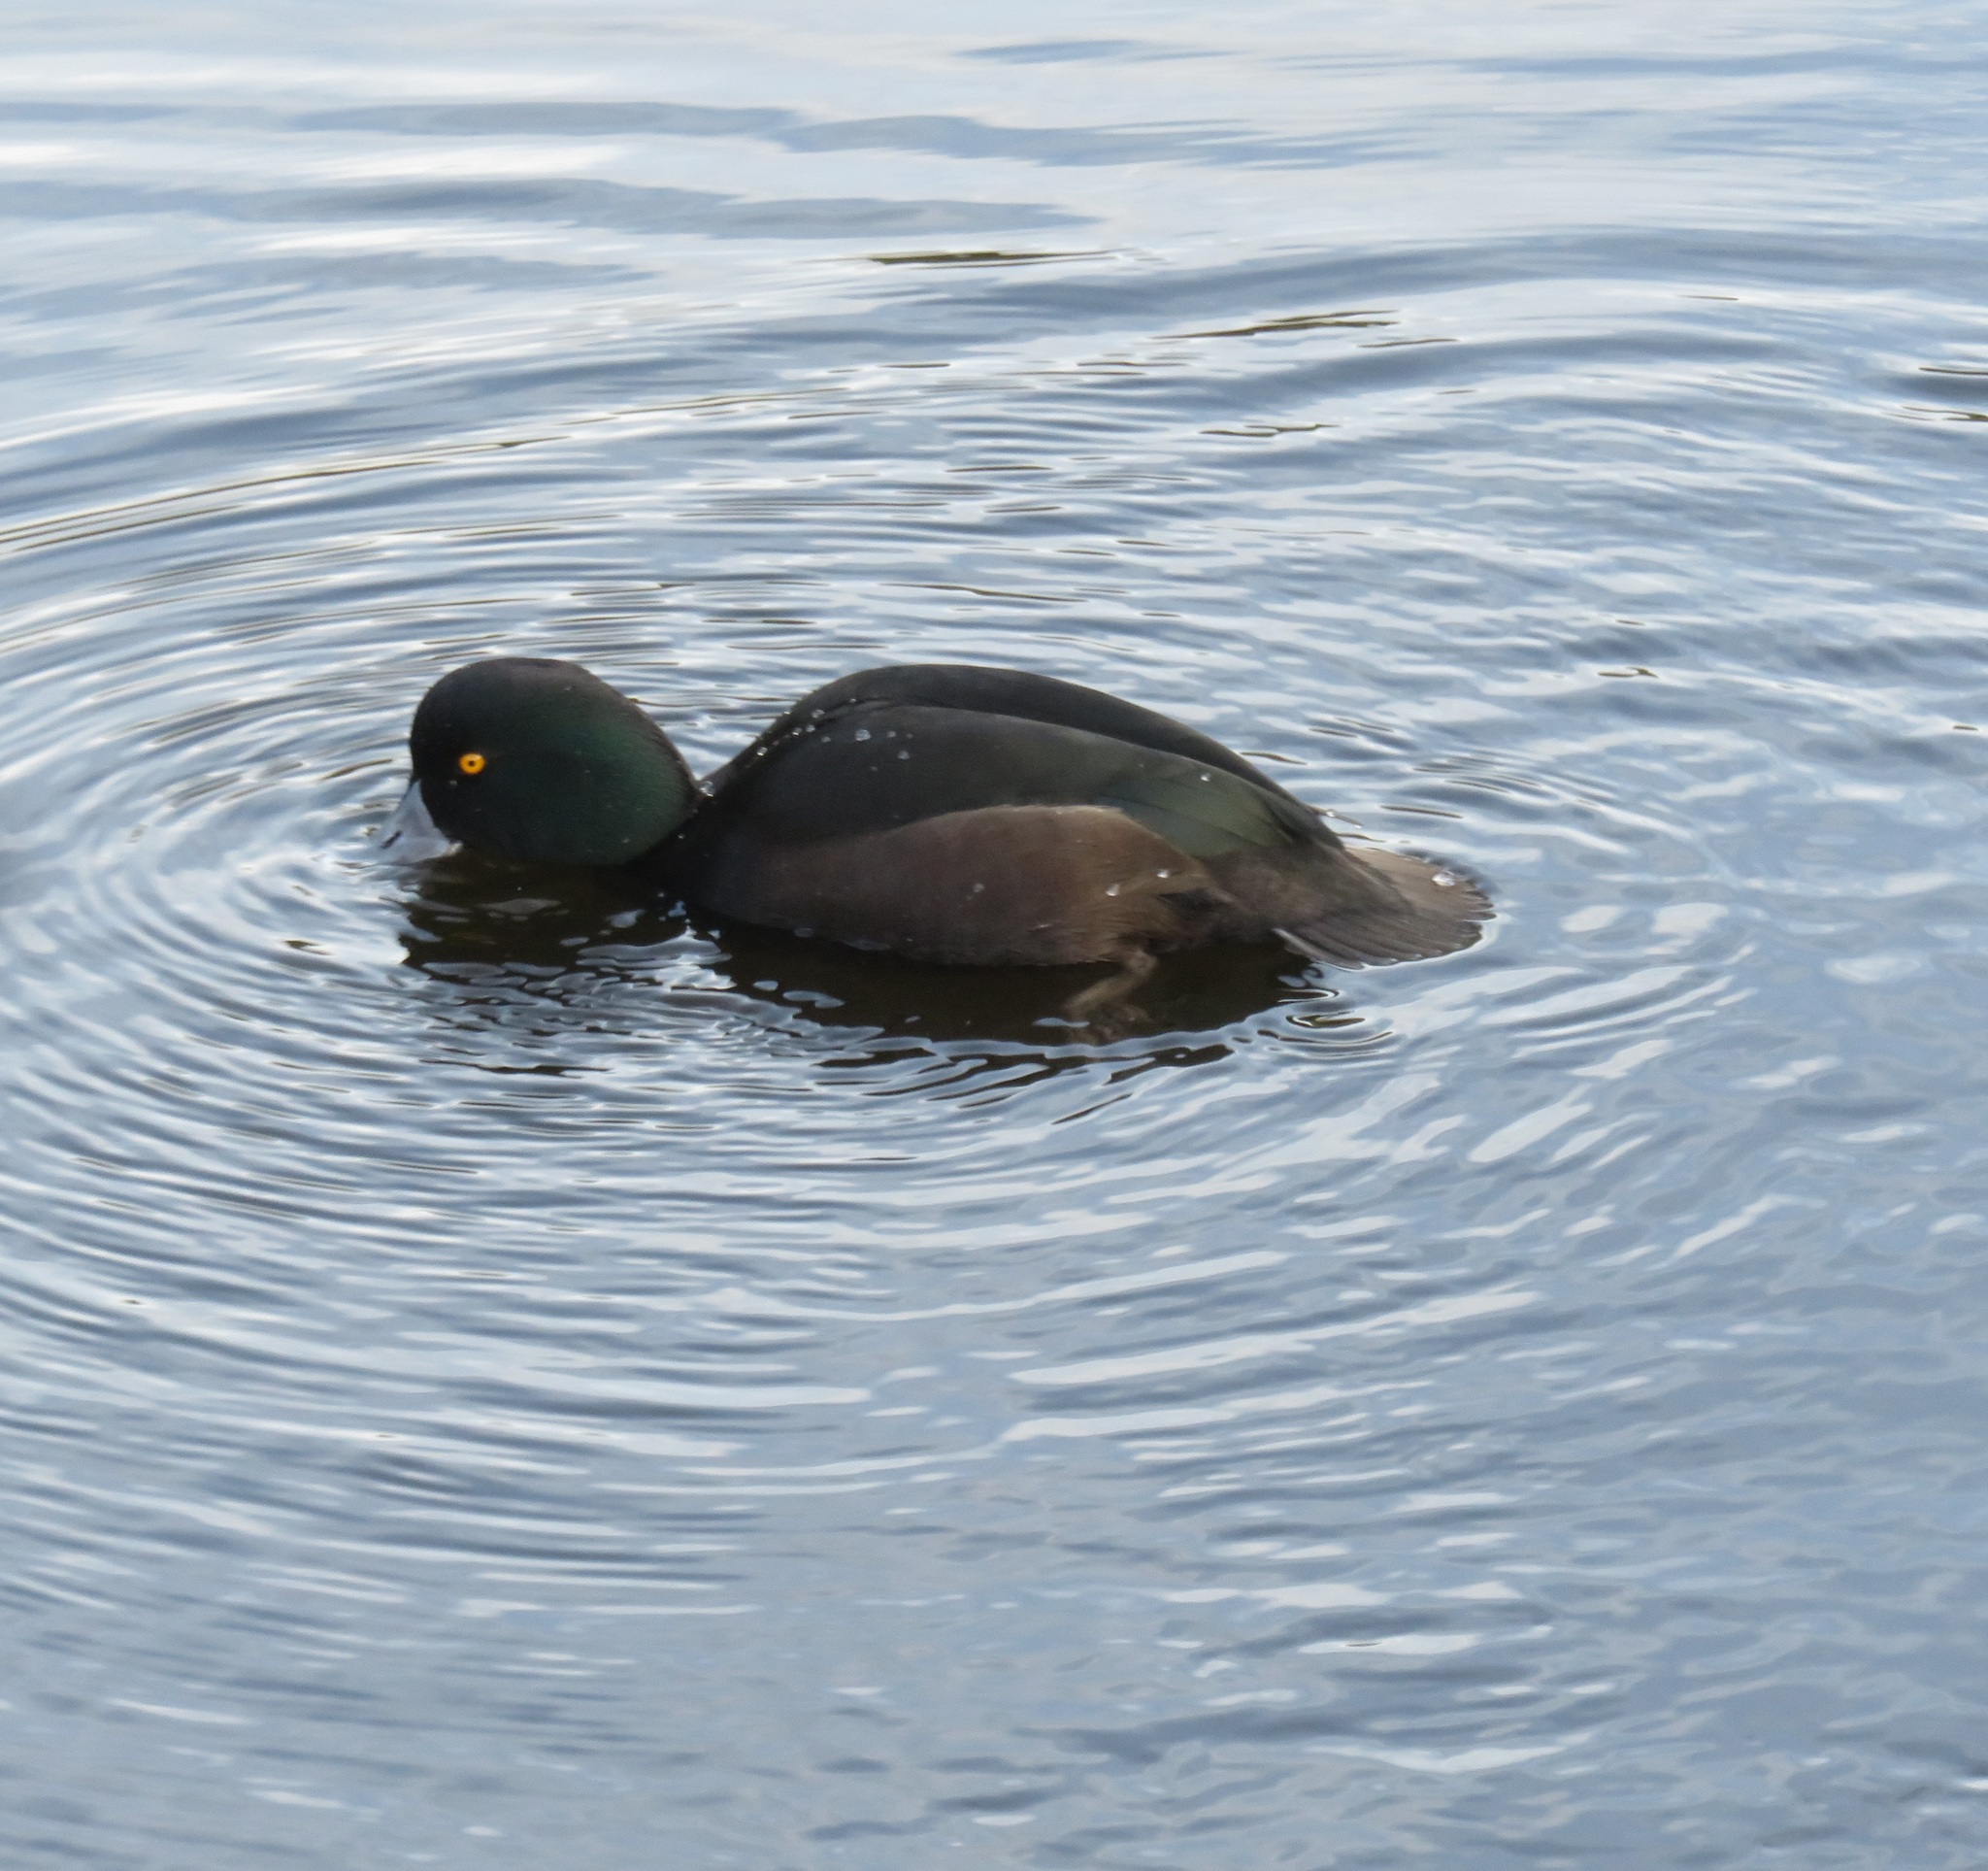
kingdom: Animalia
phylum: Chordata
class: Aves
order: Anseriformes
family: Anatidae
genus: Aythya
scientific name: Aythya novaeseelandiae
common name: New zealand scaup
